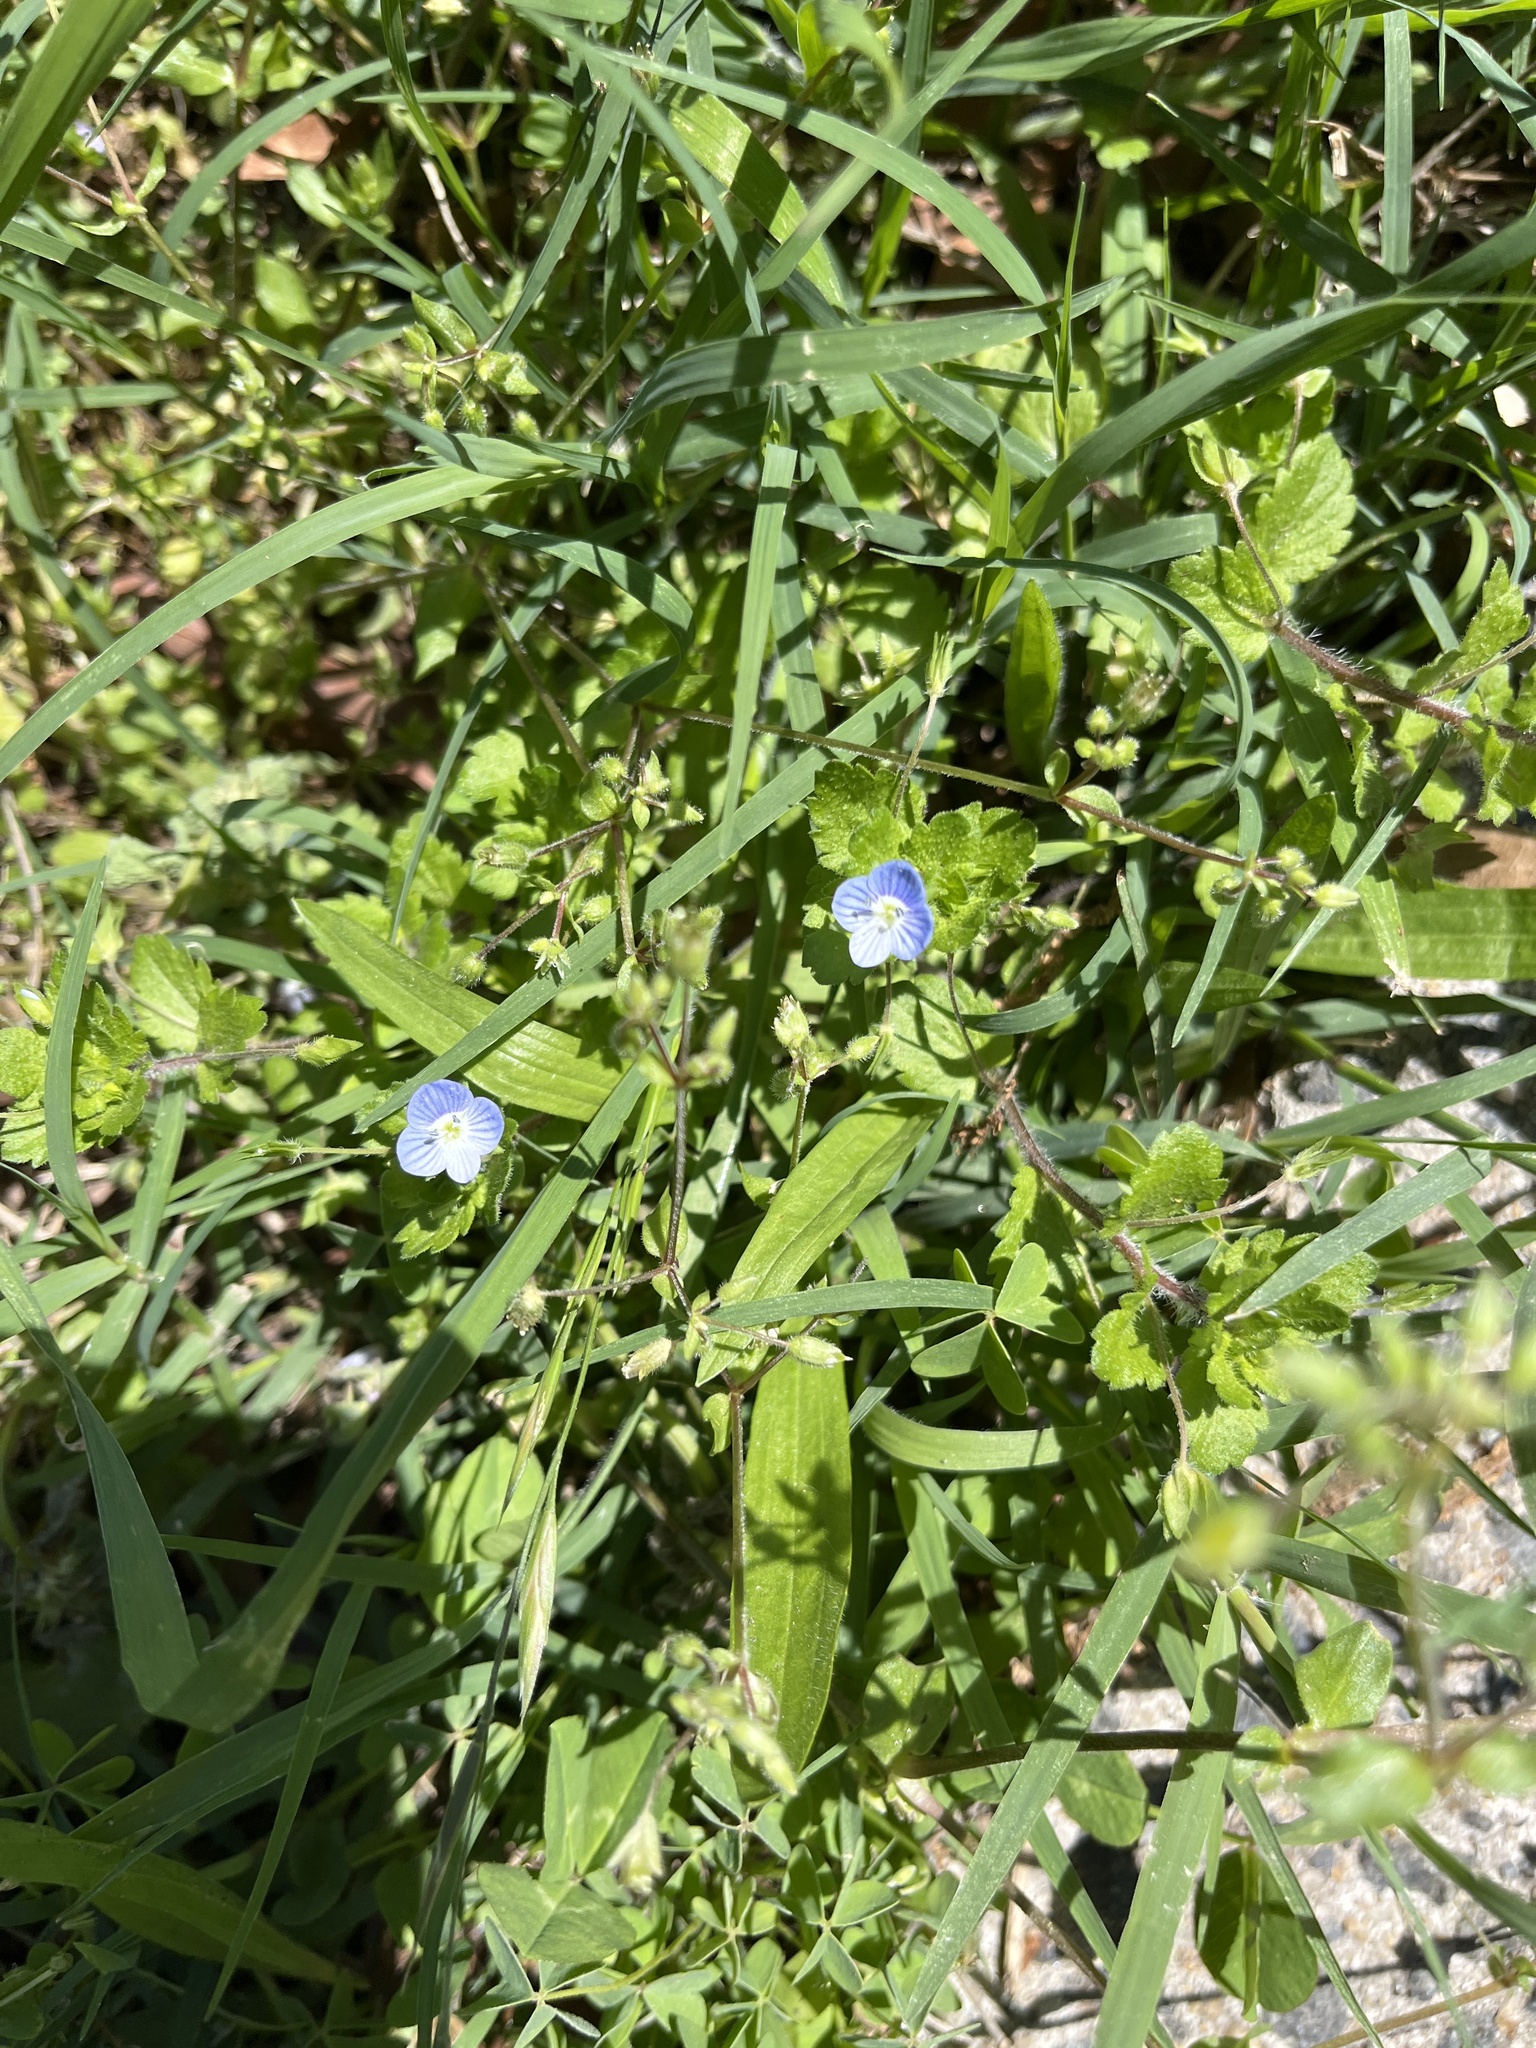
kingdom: Plantae
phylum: Tracheophyta
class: Magnoliopsida
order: Lamiales
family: Plantaginaceae
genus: Veronica
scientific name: Veronica persica
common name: Common field-speedwell
